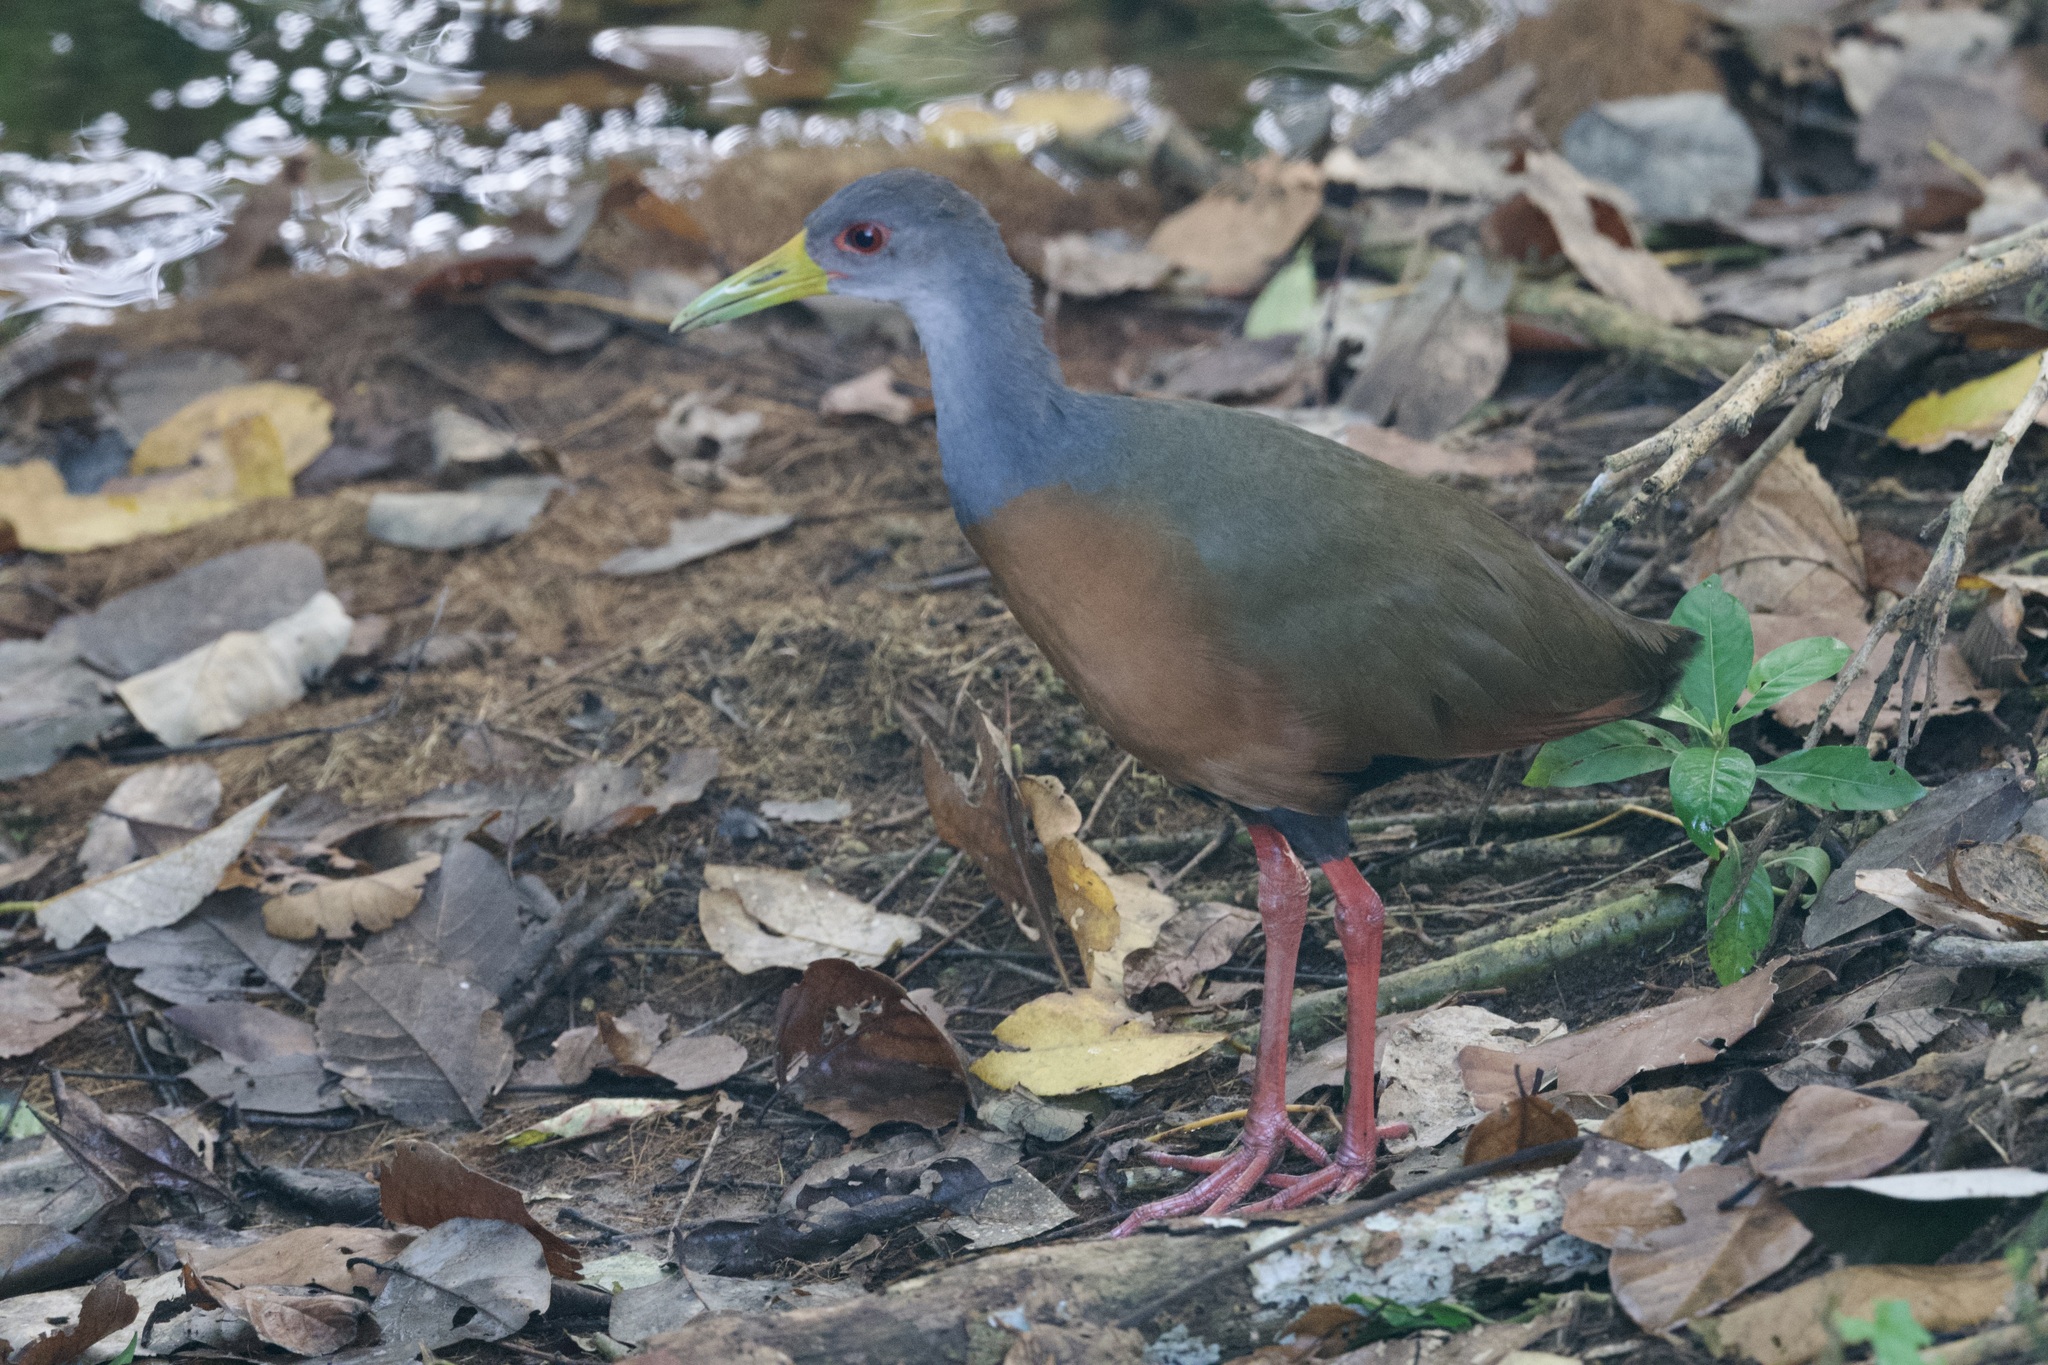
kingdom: Animalia
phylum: Chordata
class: Aves
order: Gruiformes
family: Rallidae
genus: Aramides
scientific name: Aramides cajanea
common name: Gray-necked wood-rail
